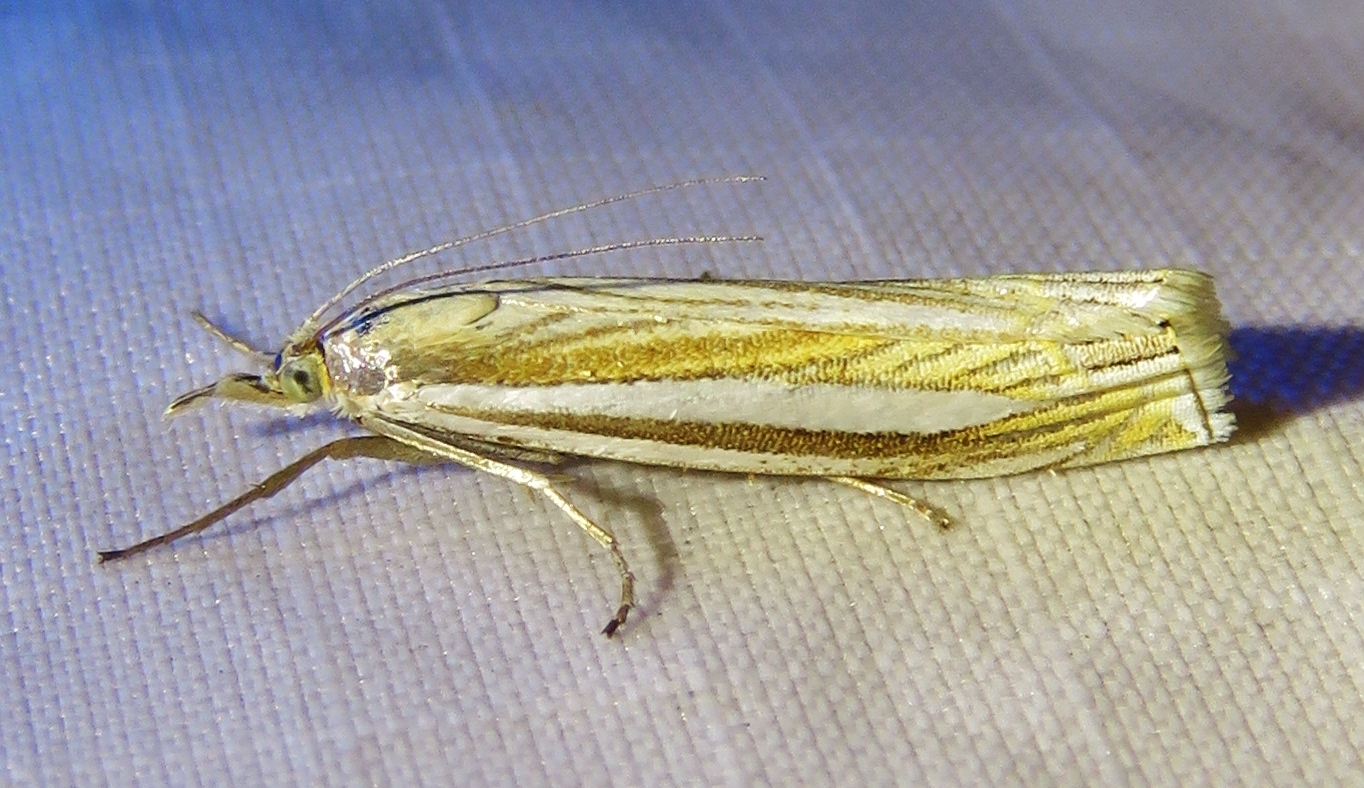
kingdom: Animalia
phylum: Arthropoda
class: Insecta
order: Lepidoptera
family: Crambidae
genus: Crambus
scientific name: Crambus laqueatellus
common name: Eastern grass-veneer
